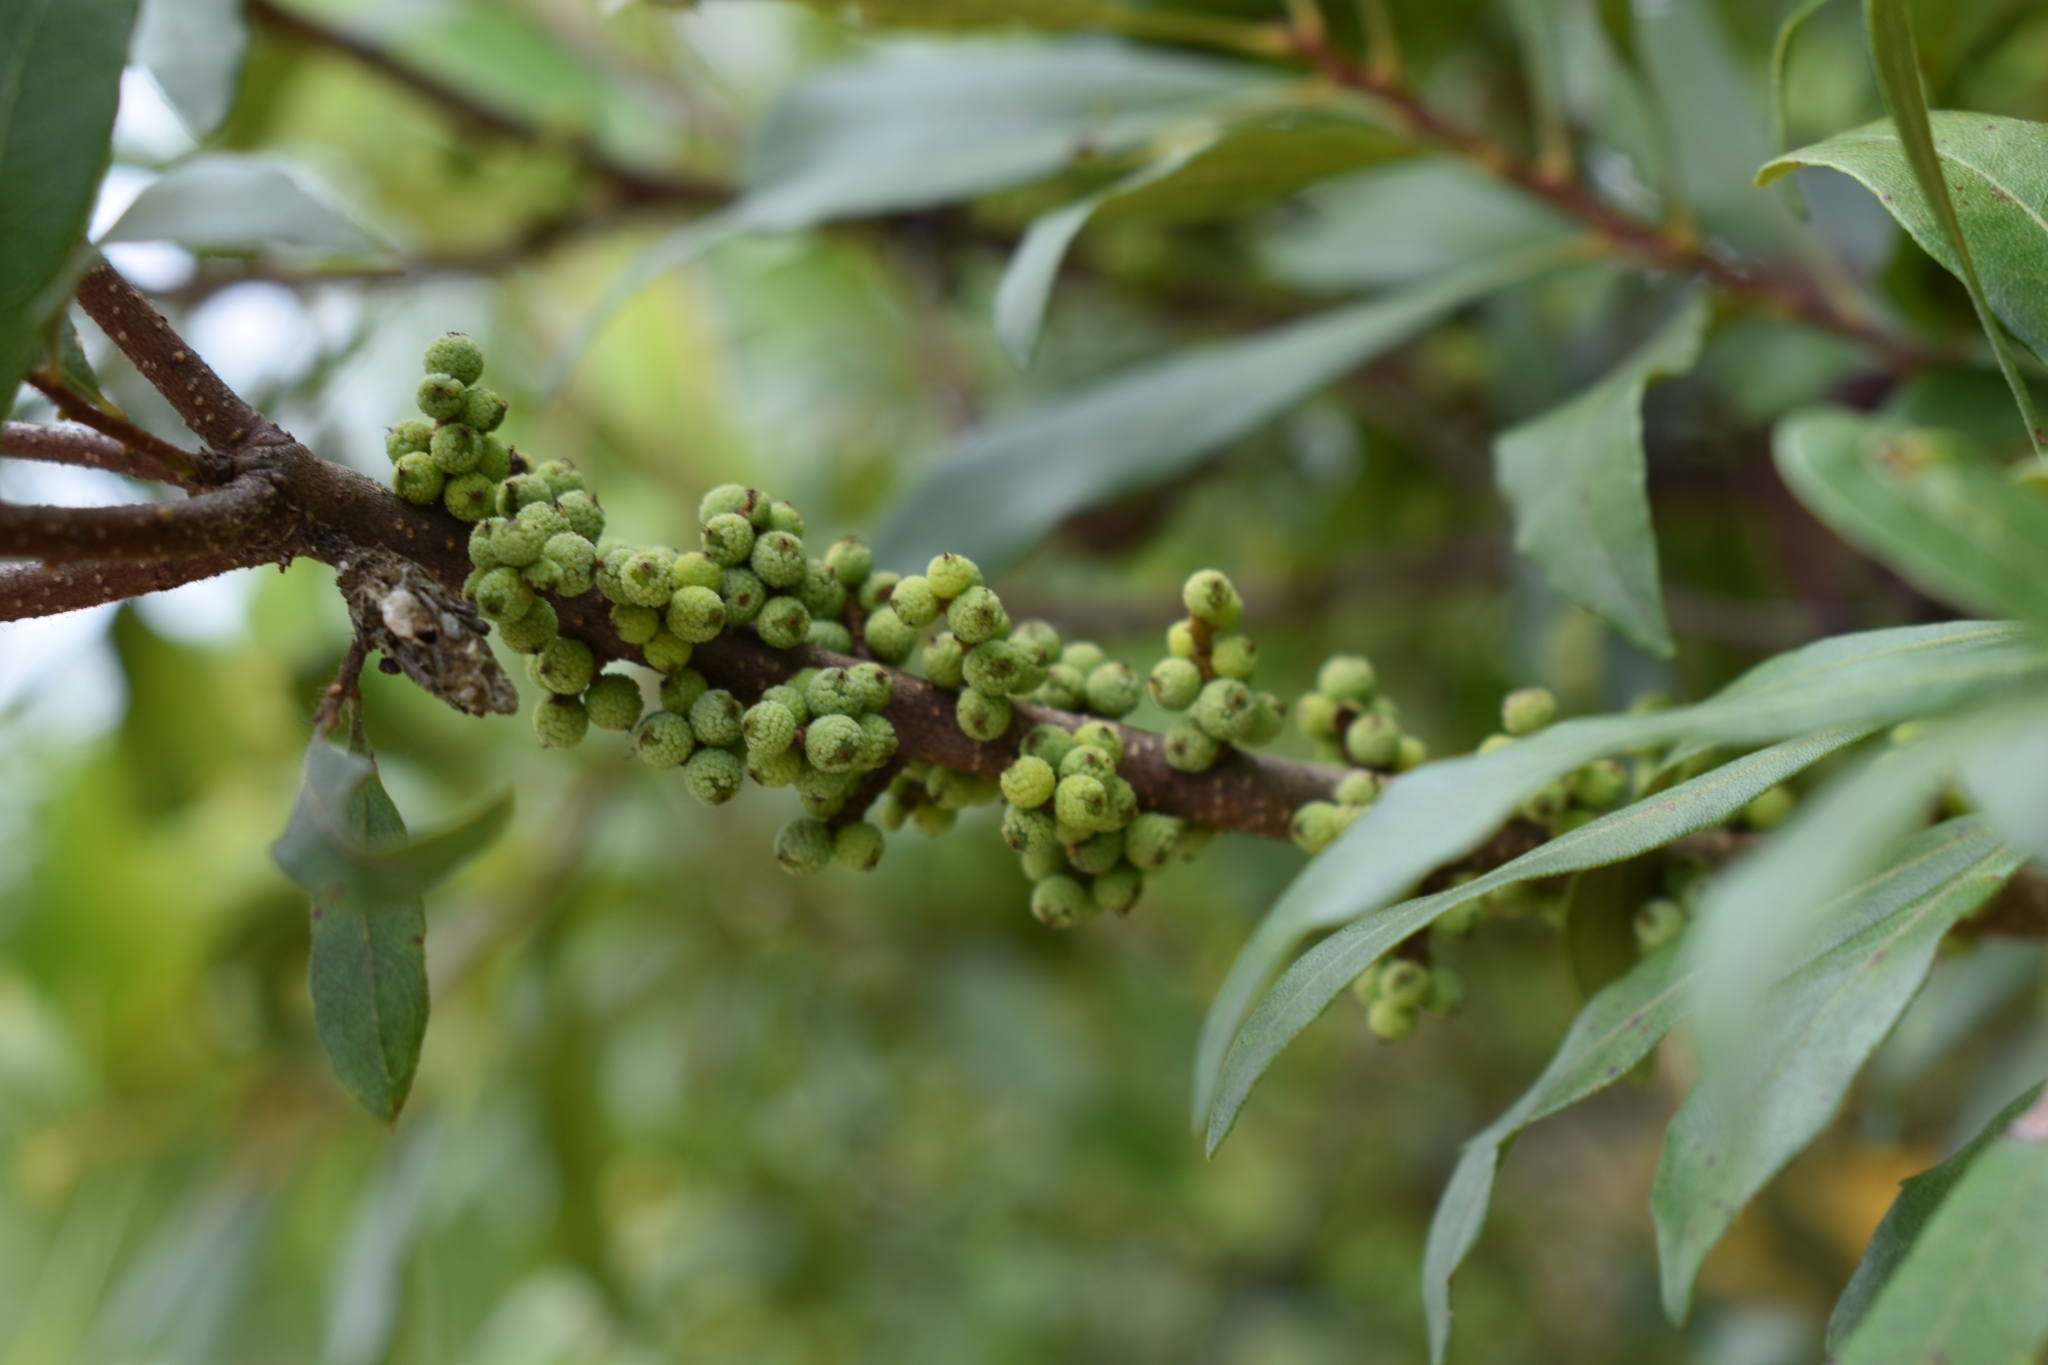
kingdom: Plantae
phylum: Tracheophyta
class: Magnoliopsida
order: Fagales
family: Myricaceae
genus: Morella
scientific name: Morella cerifera
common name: Wax myrtle
